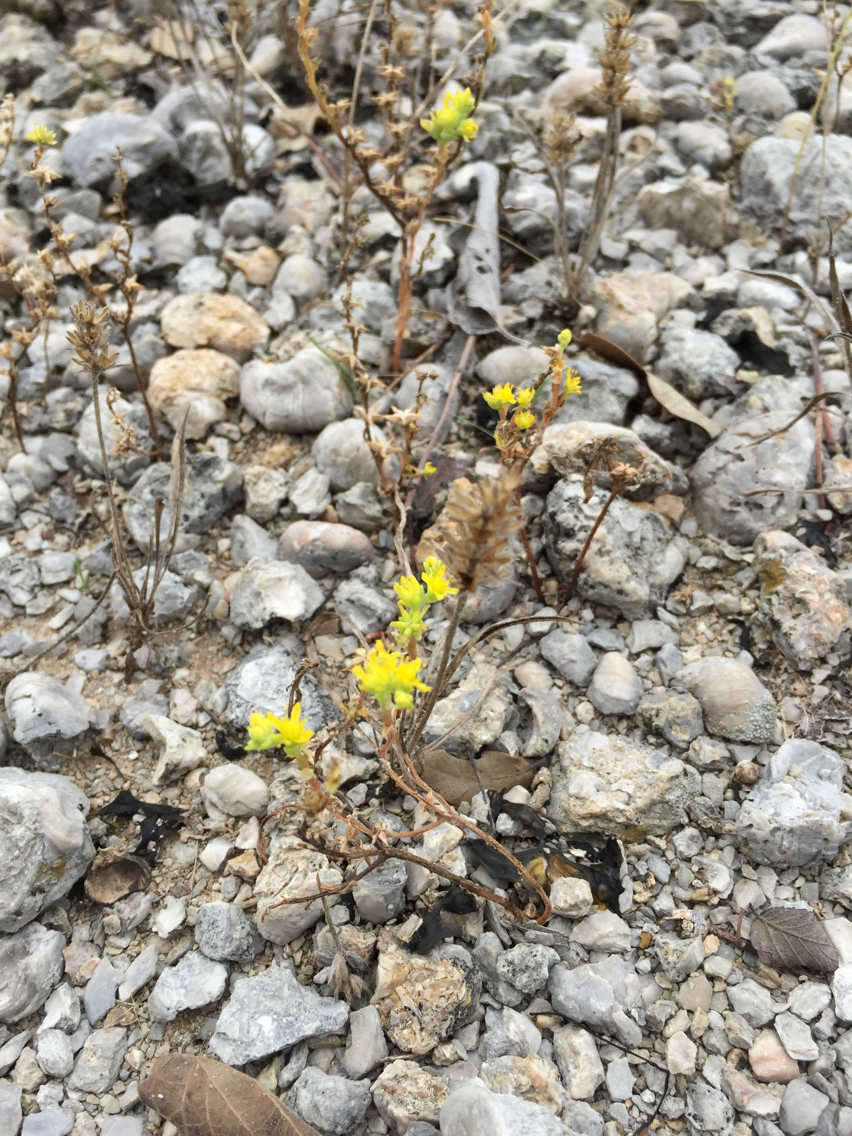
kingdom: Plantae
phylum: Tracheophyta
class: Magnoliopsida
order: Saxifragales
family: Crassulaceae
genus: Sedum
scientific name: Sedum nuttallii
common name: Yellow stonecrop
